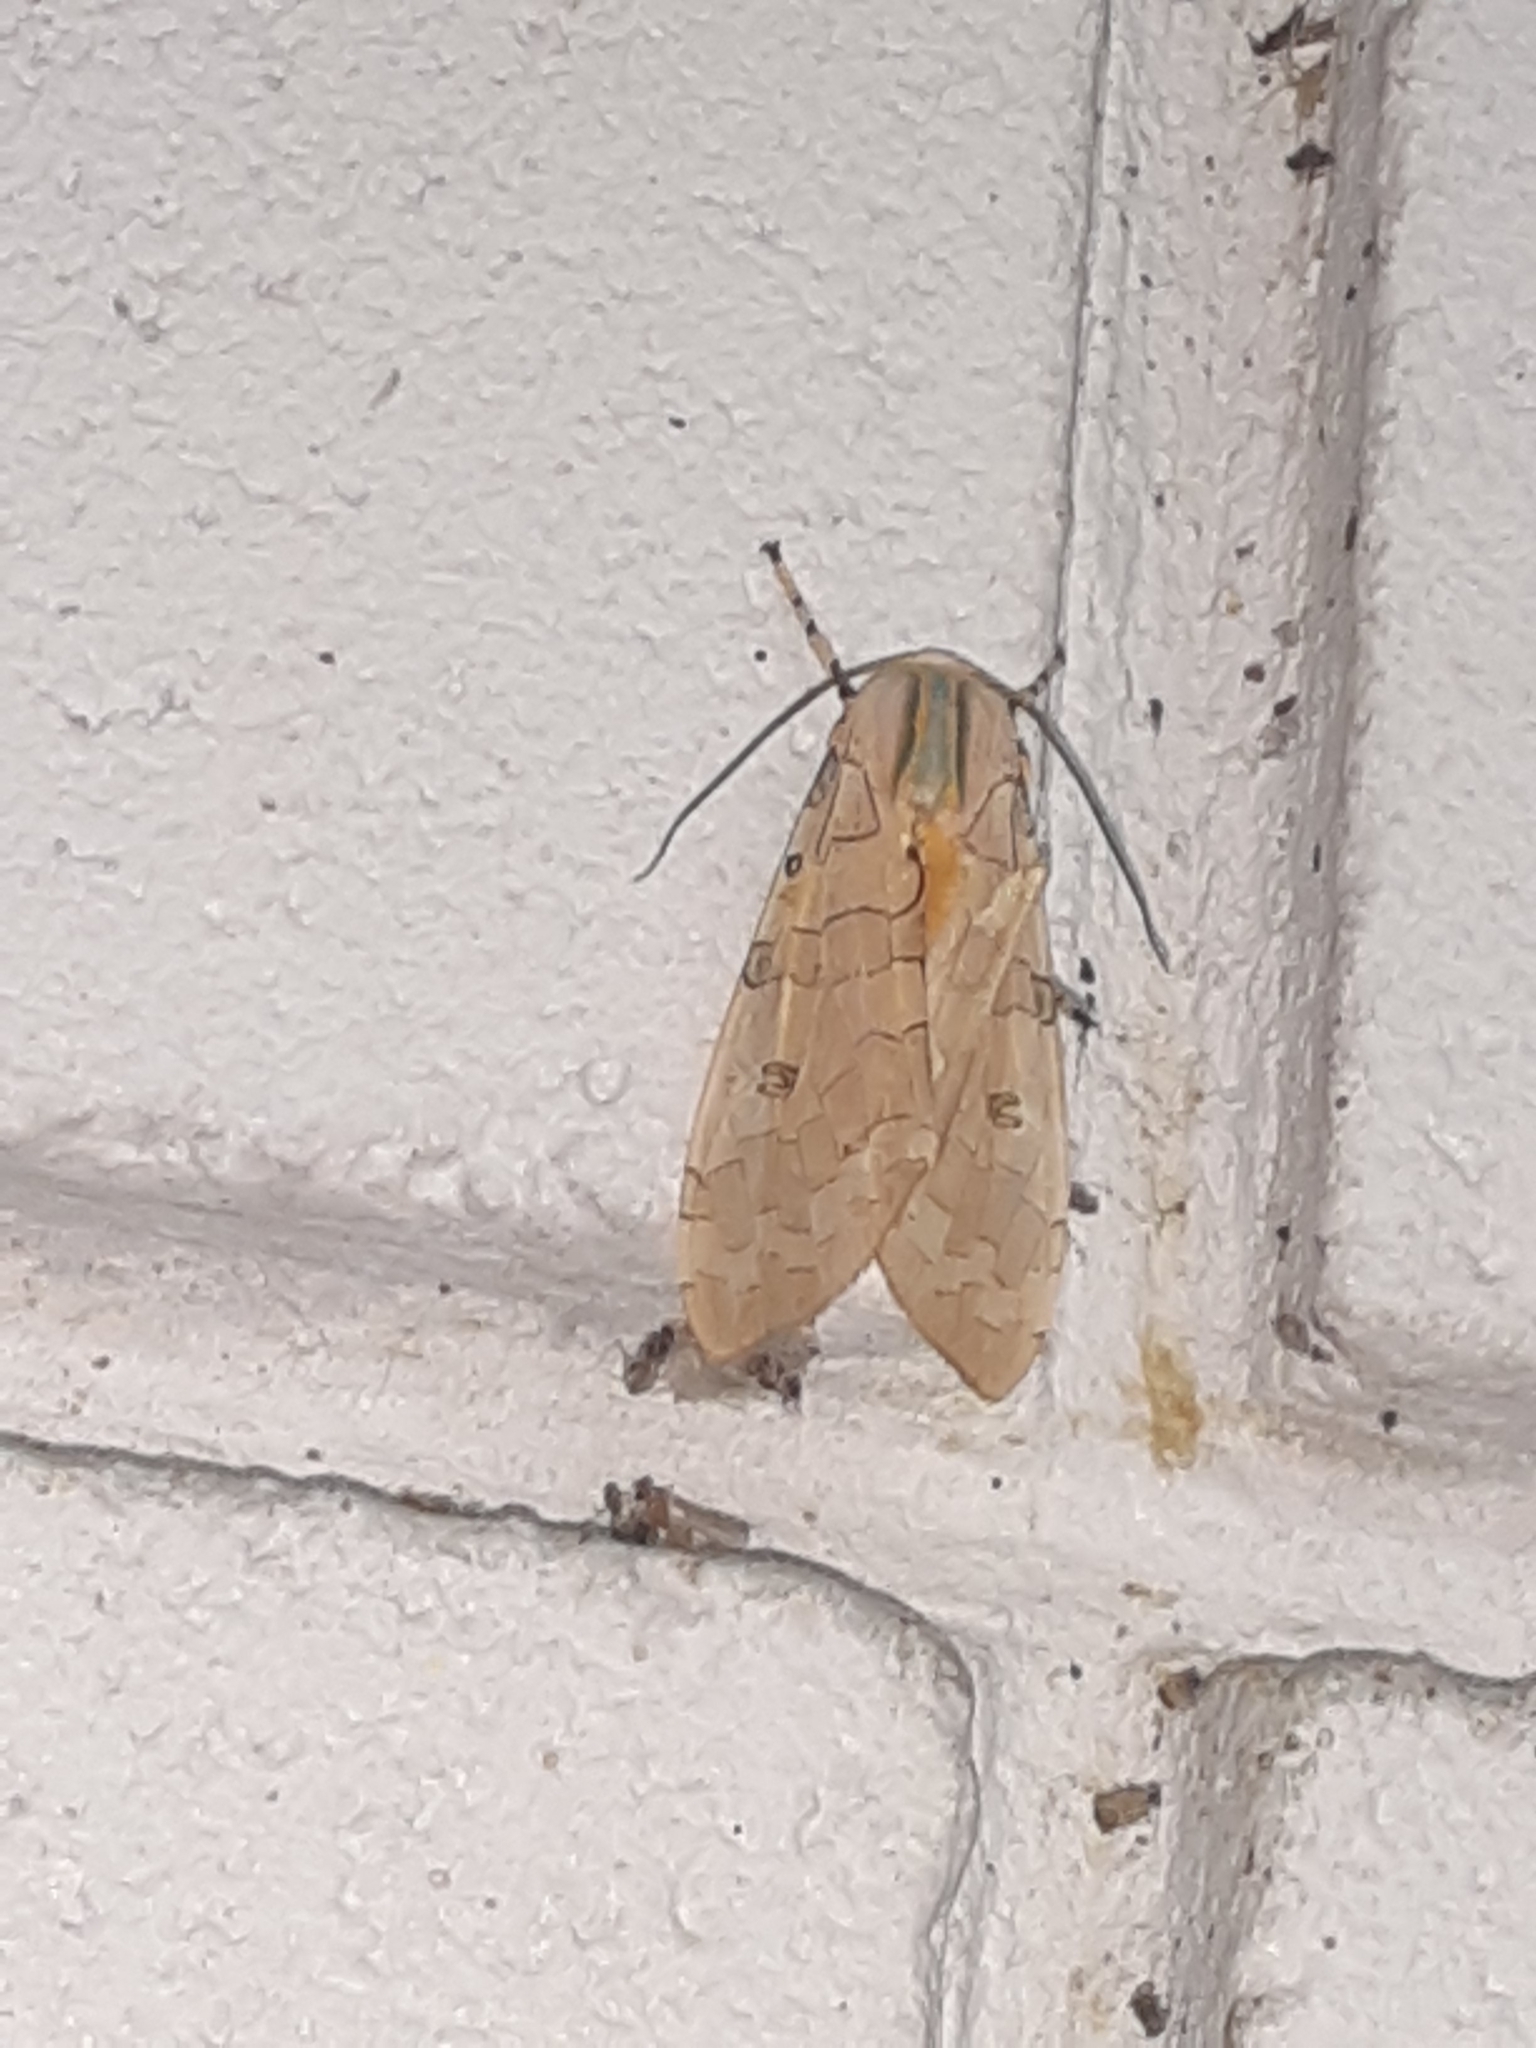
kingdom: Animalia
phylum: Arthropoda
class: Insecta
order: Lepidoptera
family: Erebidae
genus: Halysidota
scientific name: Halysidota cinctipes
